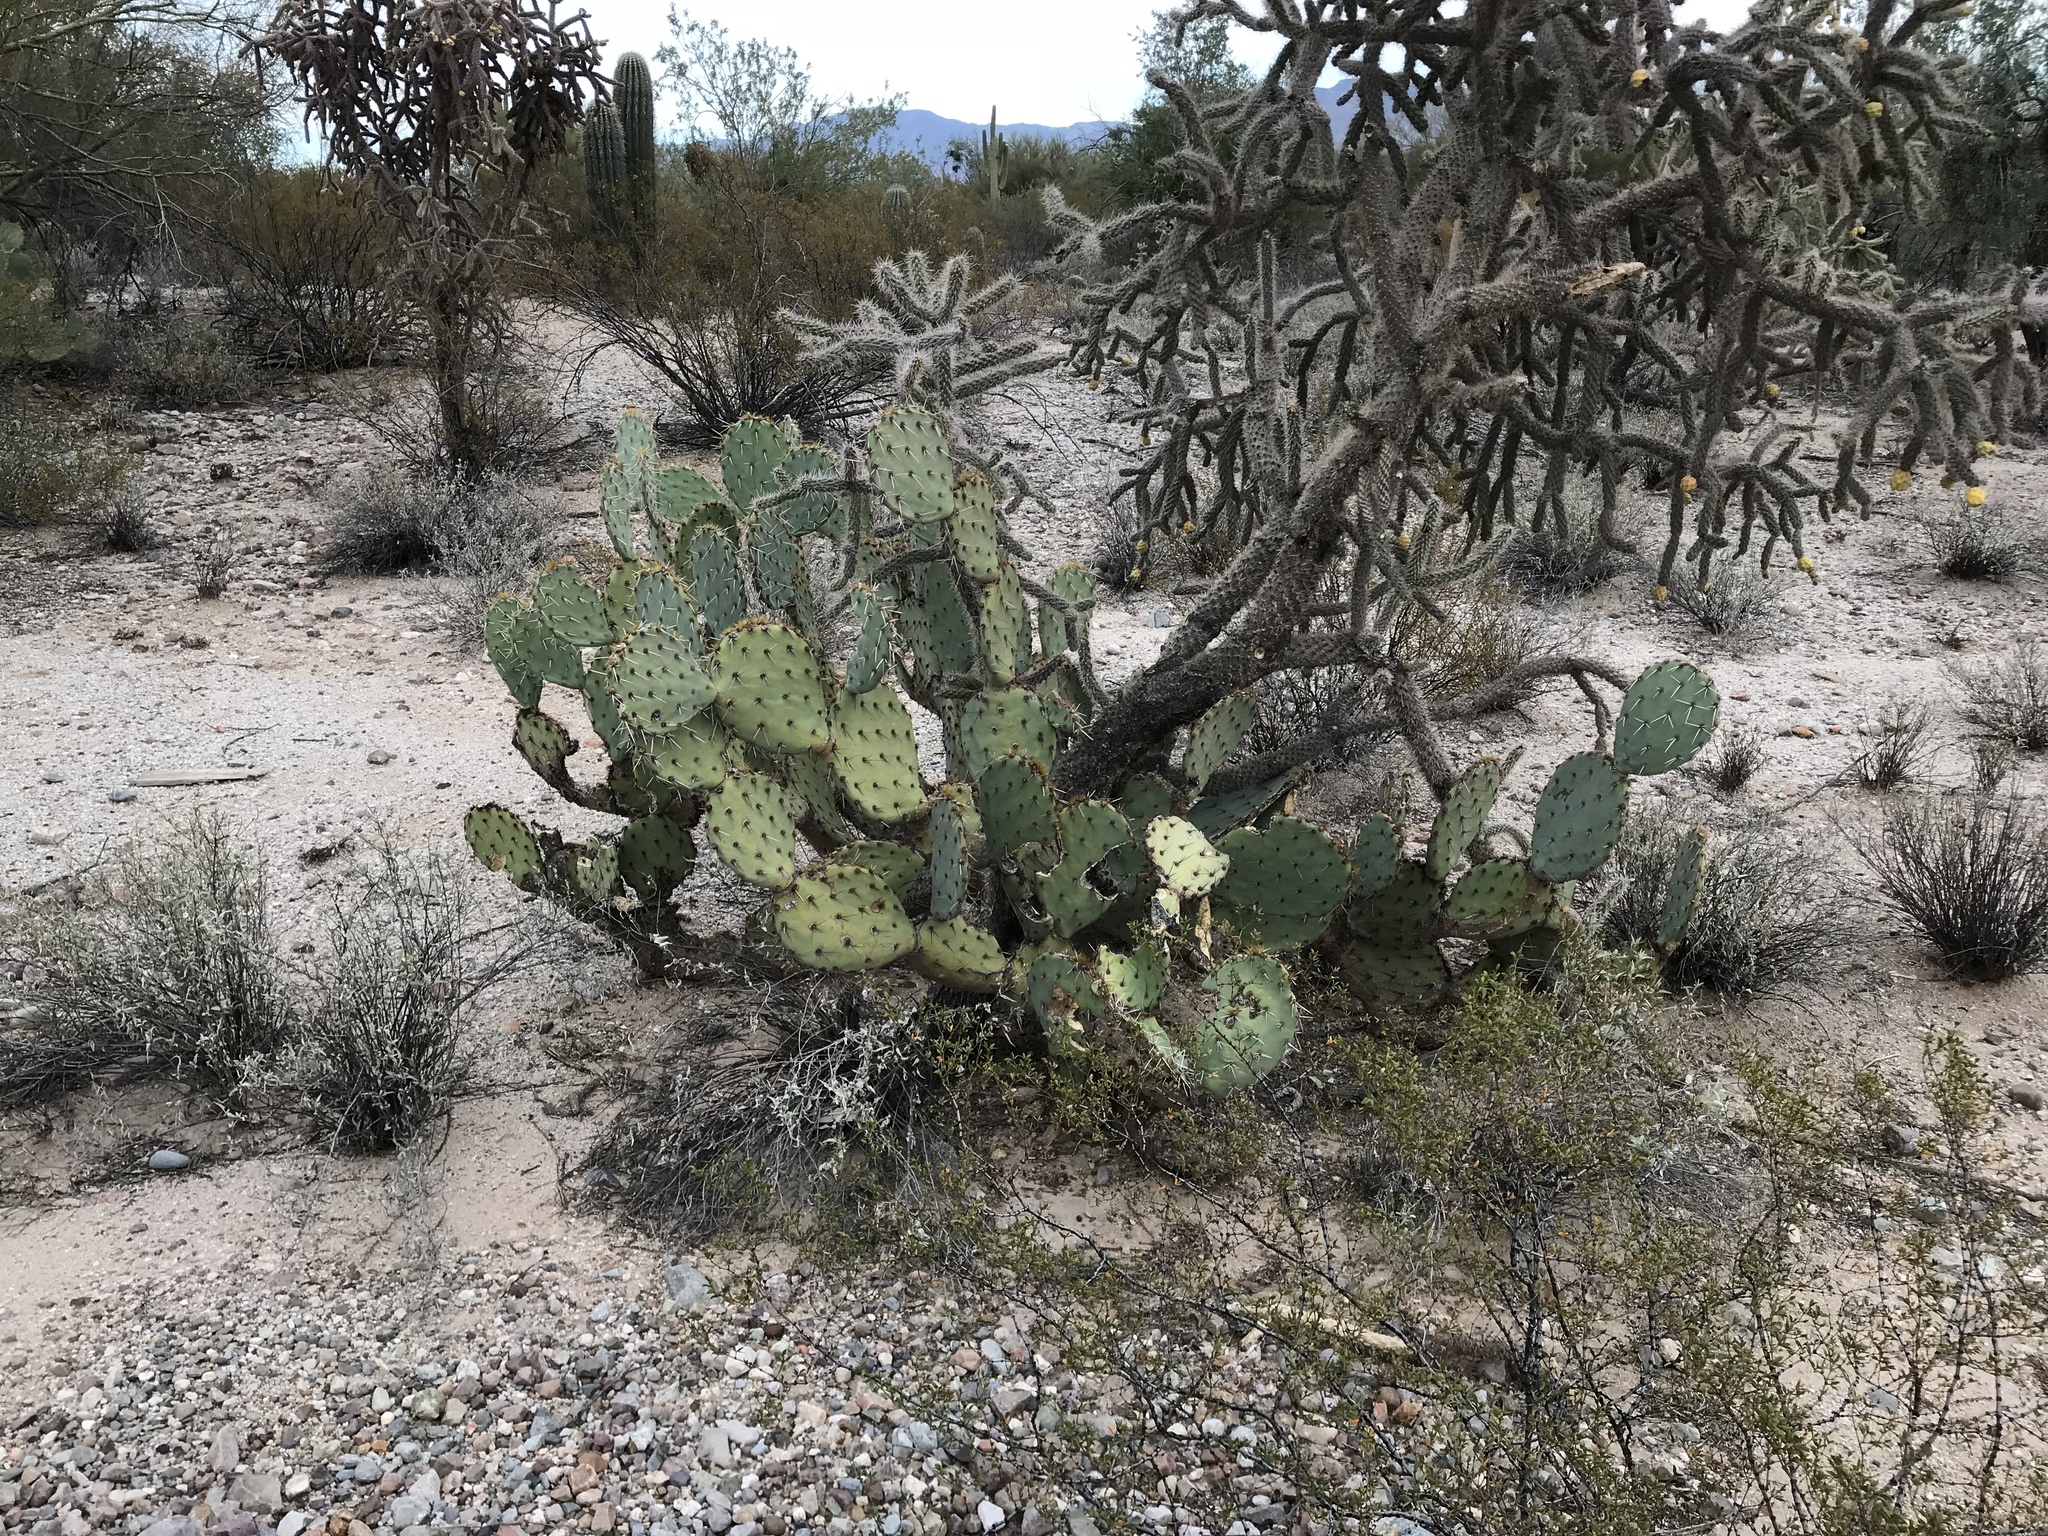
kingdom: Plantae
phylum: Tracheophyta
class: Magnoliopsida
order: Caryophyllales
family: Cactaceae
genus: Opuntia
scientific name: Opuntia engelmannii
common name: Cactus-apple
